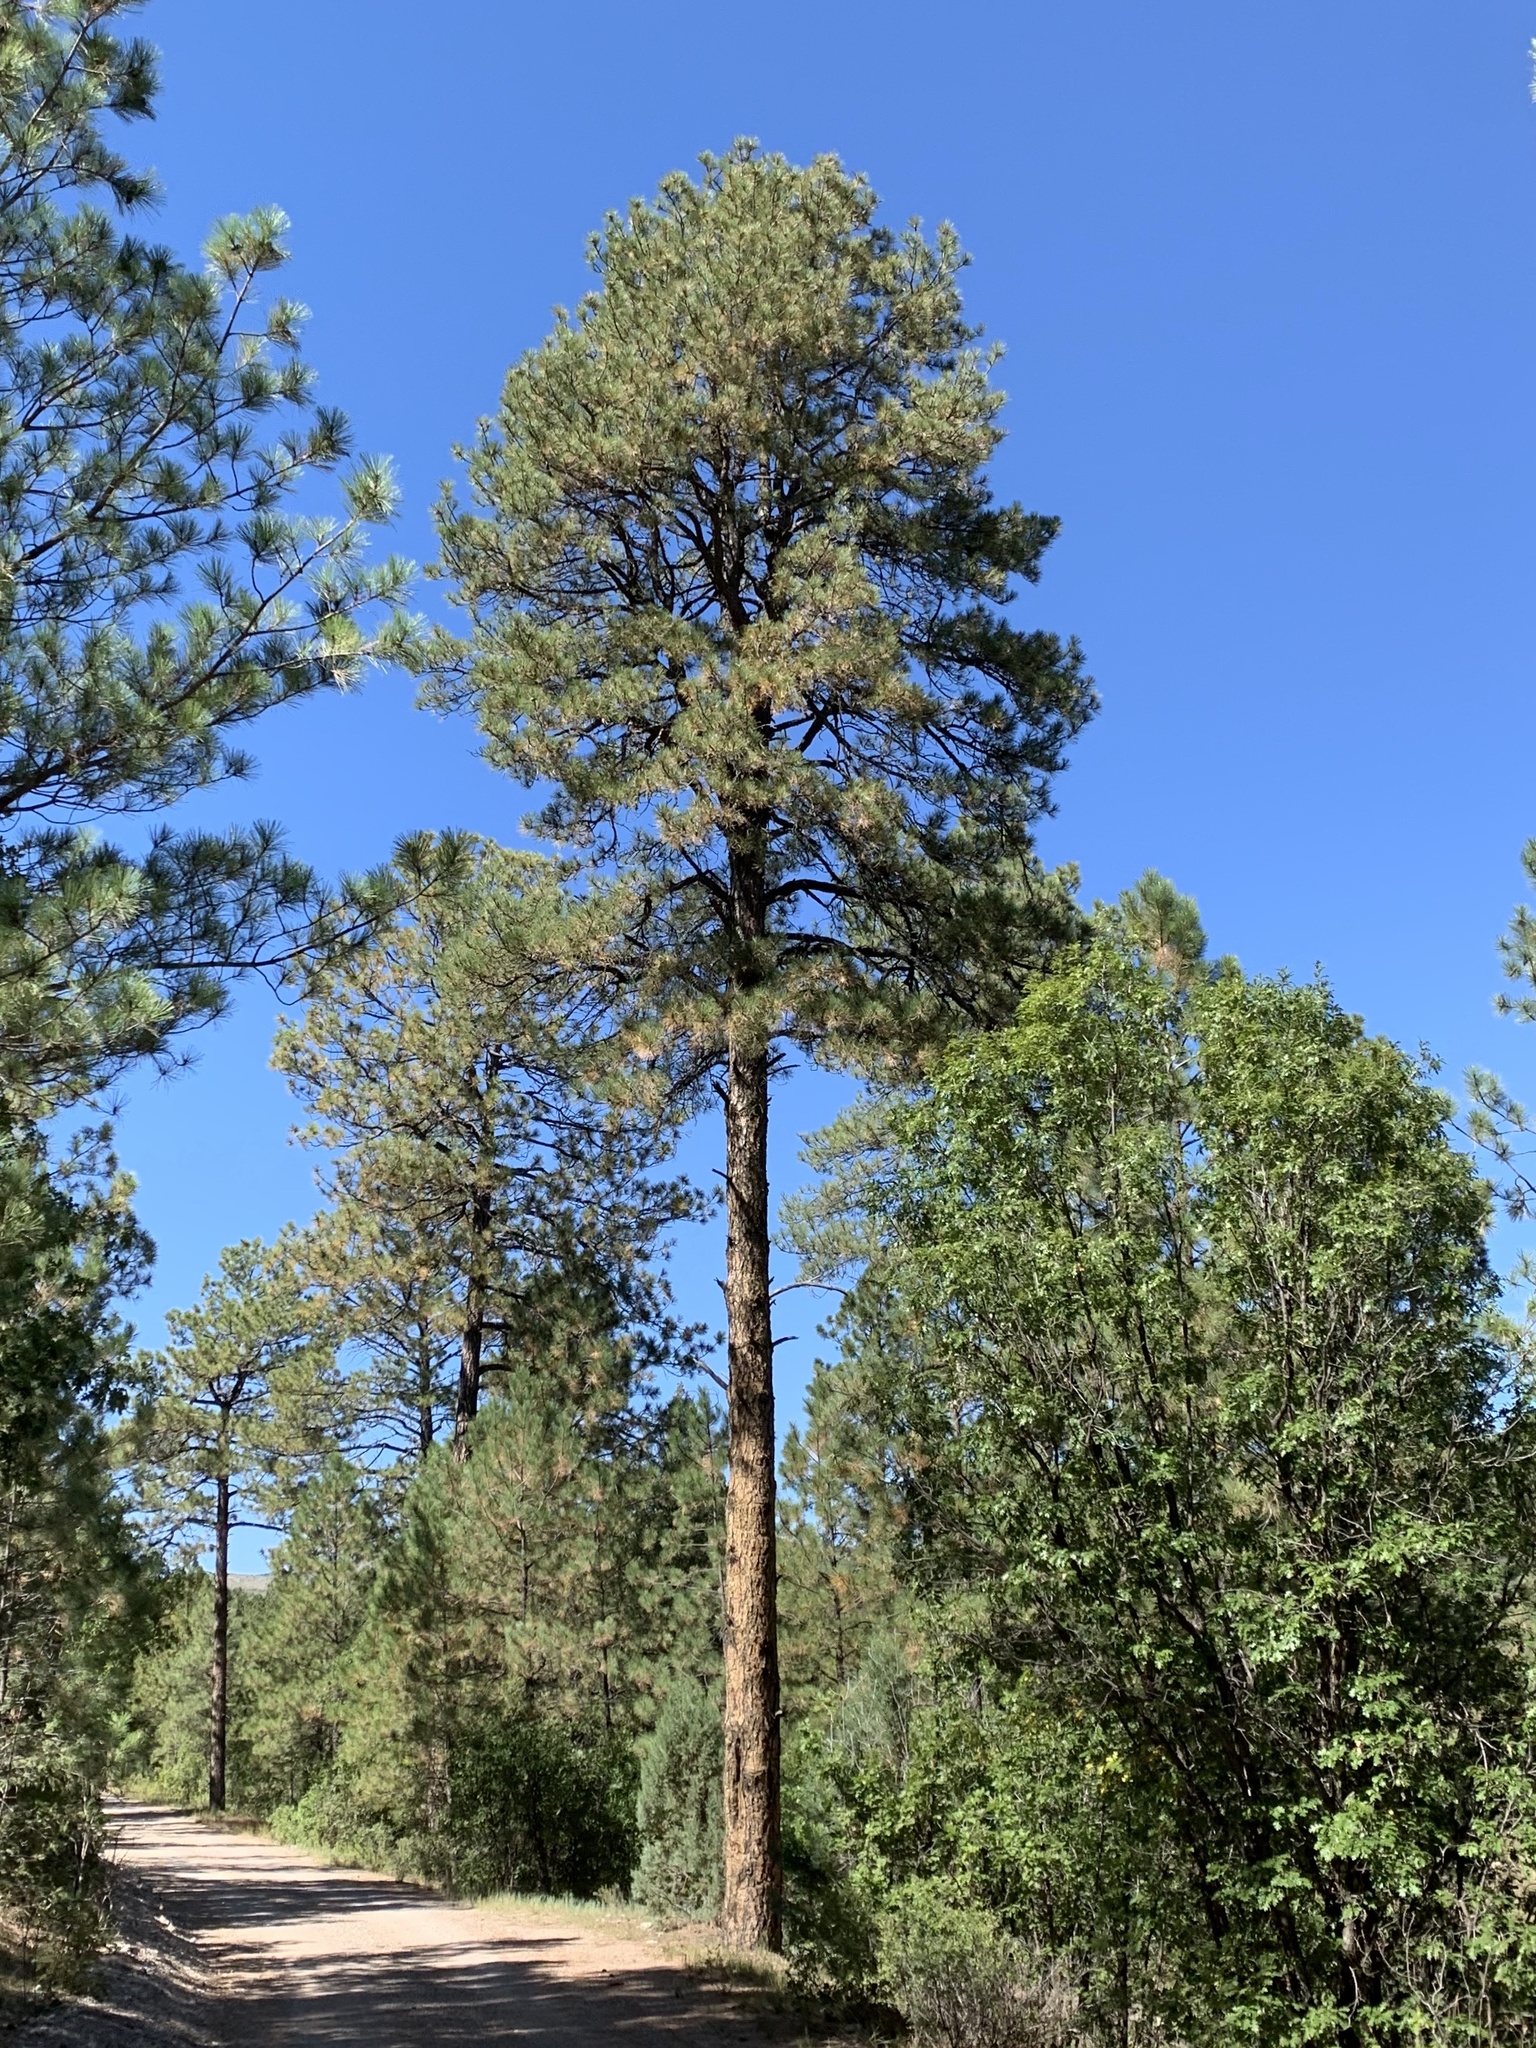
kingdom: Plantae
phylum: Tracheophyta
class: Pinopsida
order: Pinales
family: Pinaceae
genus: Pinus
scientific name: Pinus ponderosa
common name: Western yellow-pine
